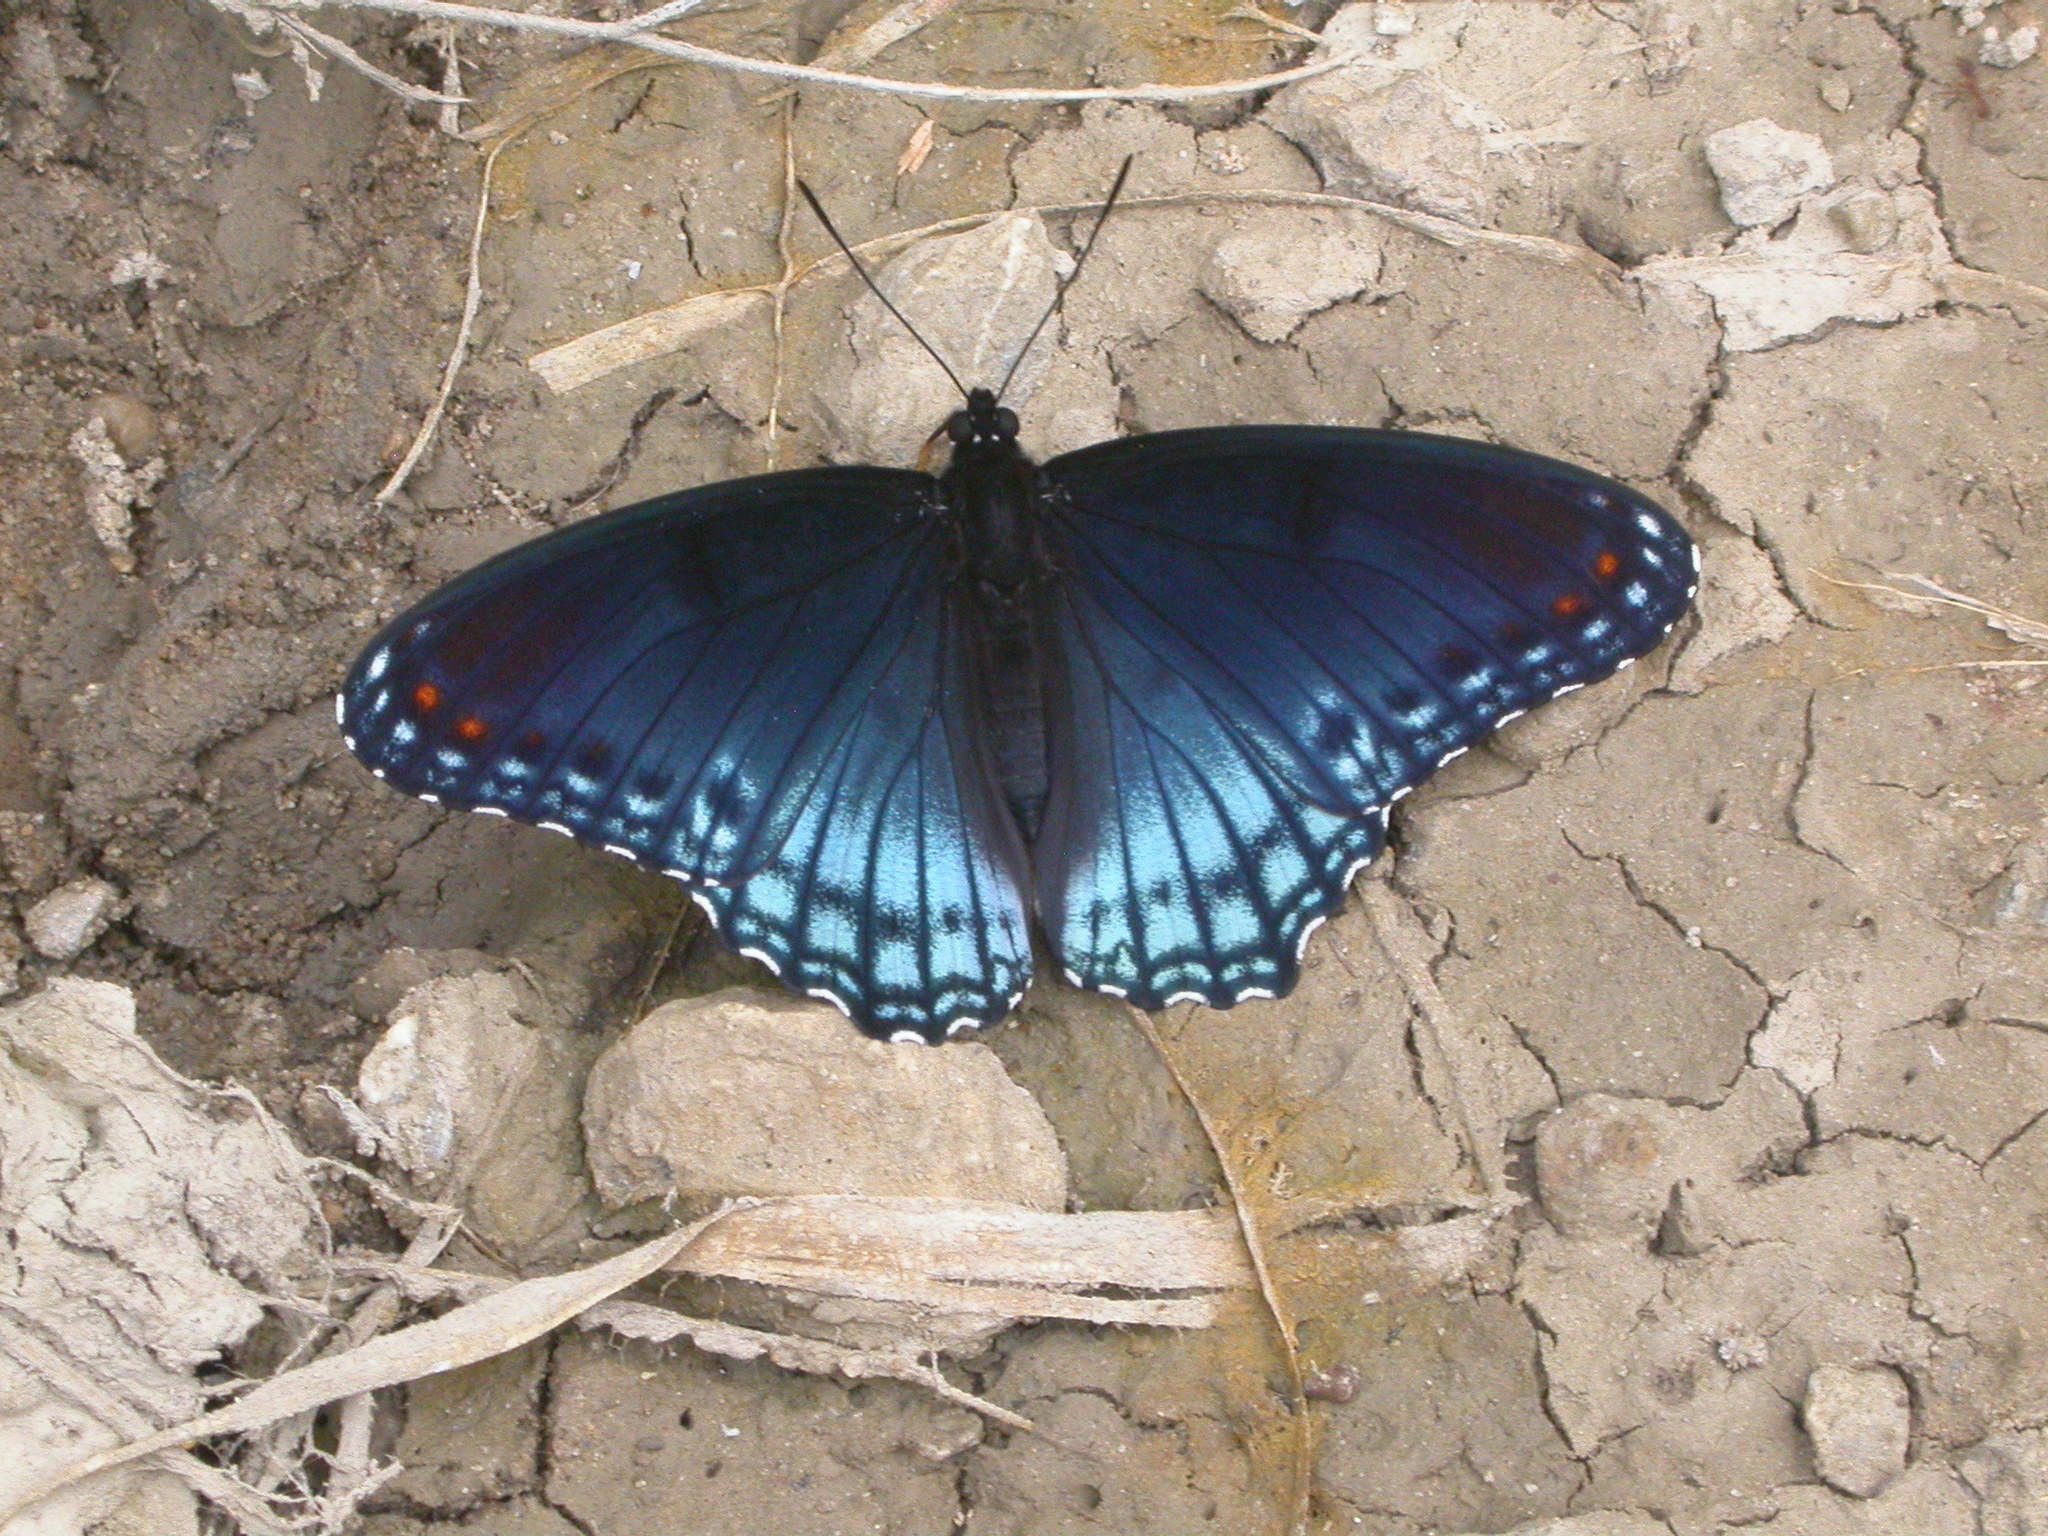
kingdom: Animalia
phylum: Arthropoda
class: Insecta
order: Lepidoptera
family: Nymphalidae
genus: Limenitis
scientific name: Limenitis astyanax
